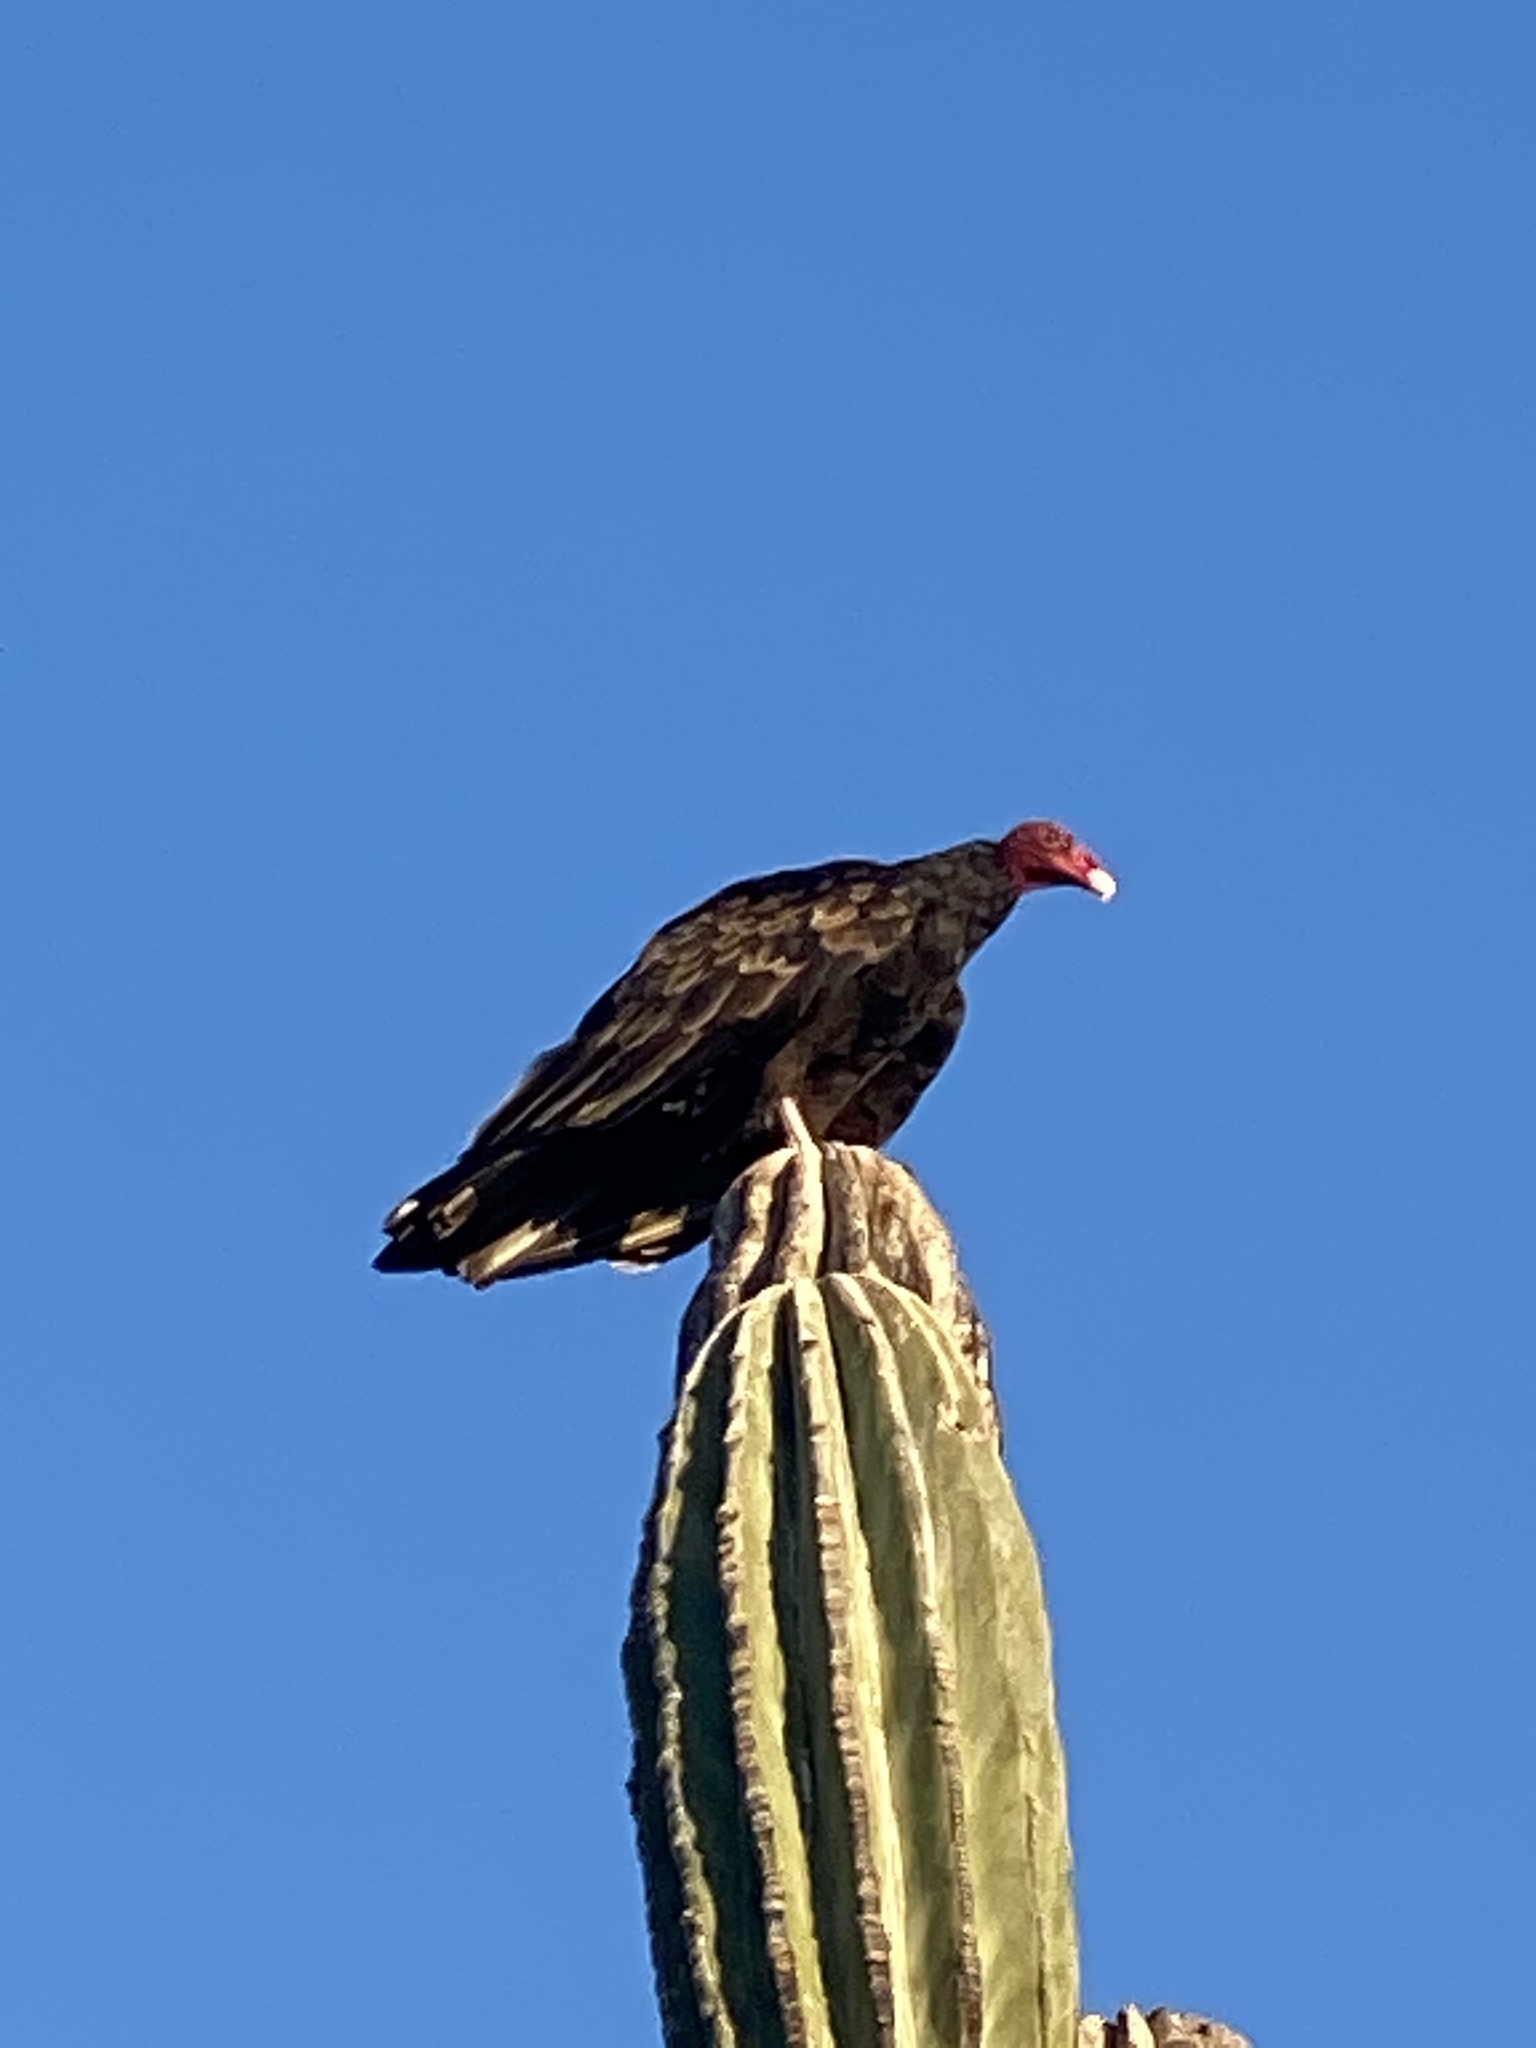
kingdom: Animalia
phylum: Chordata
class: Aves
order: Accipitriformes
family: Cathartidae
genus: Cathartes
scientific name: Cathartes aura
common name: Turkey vulture
